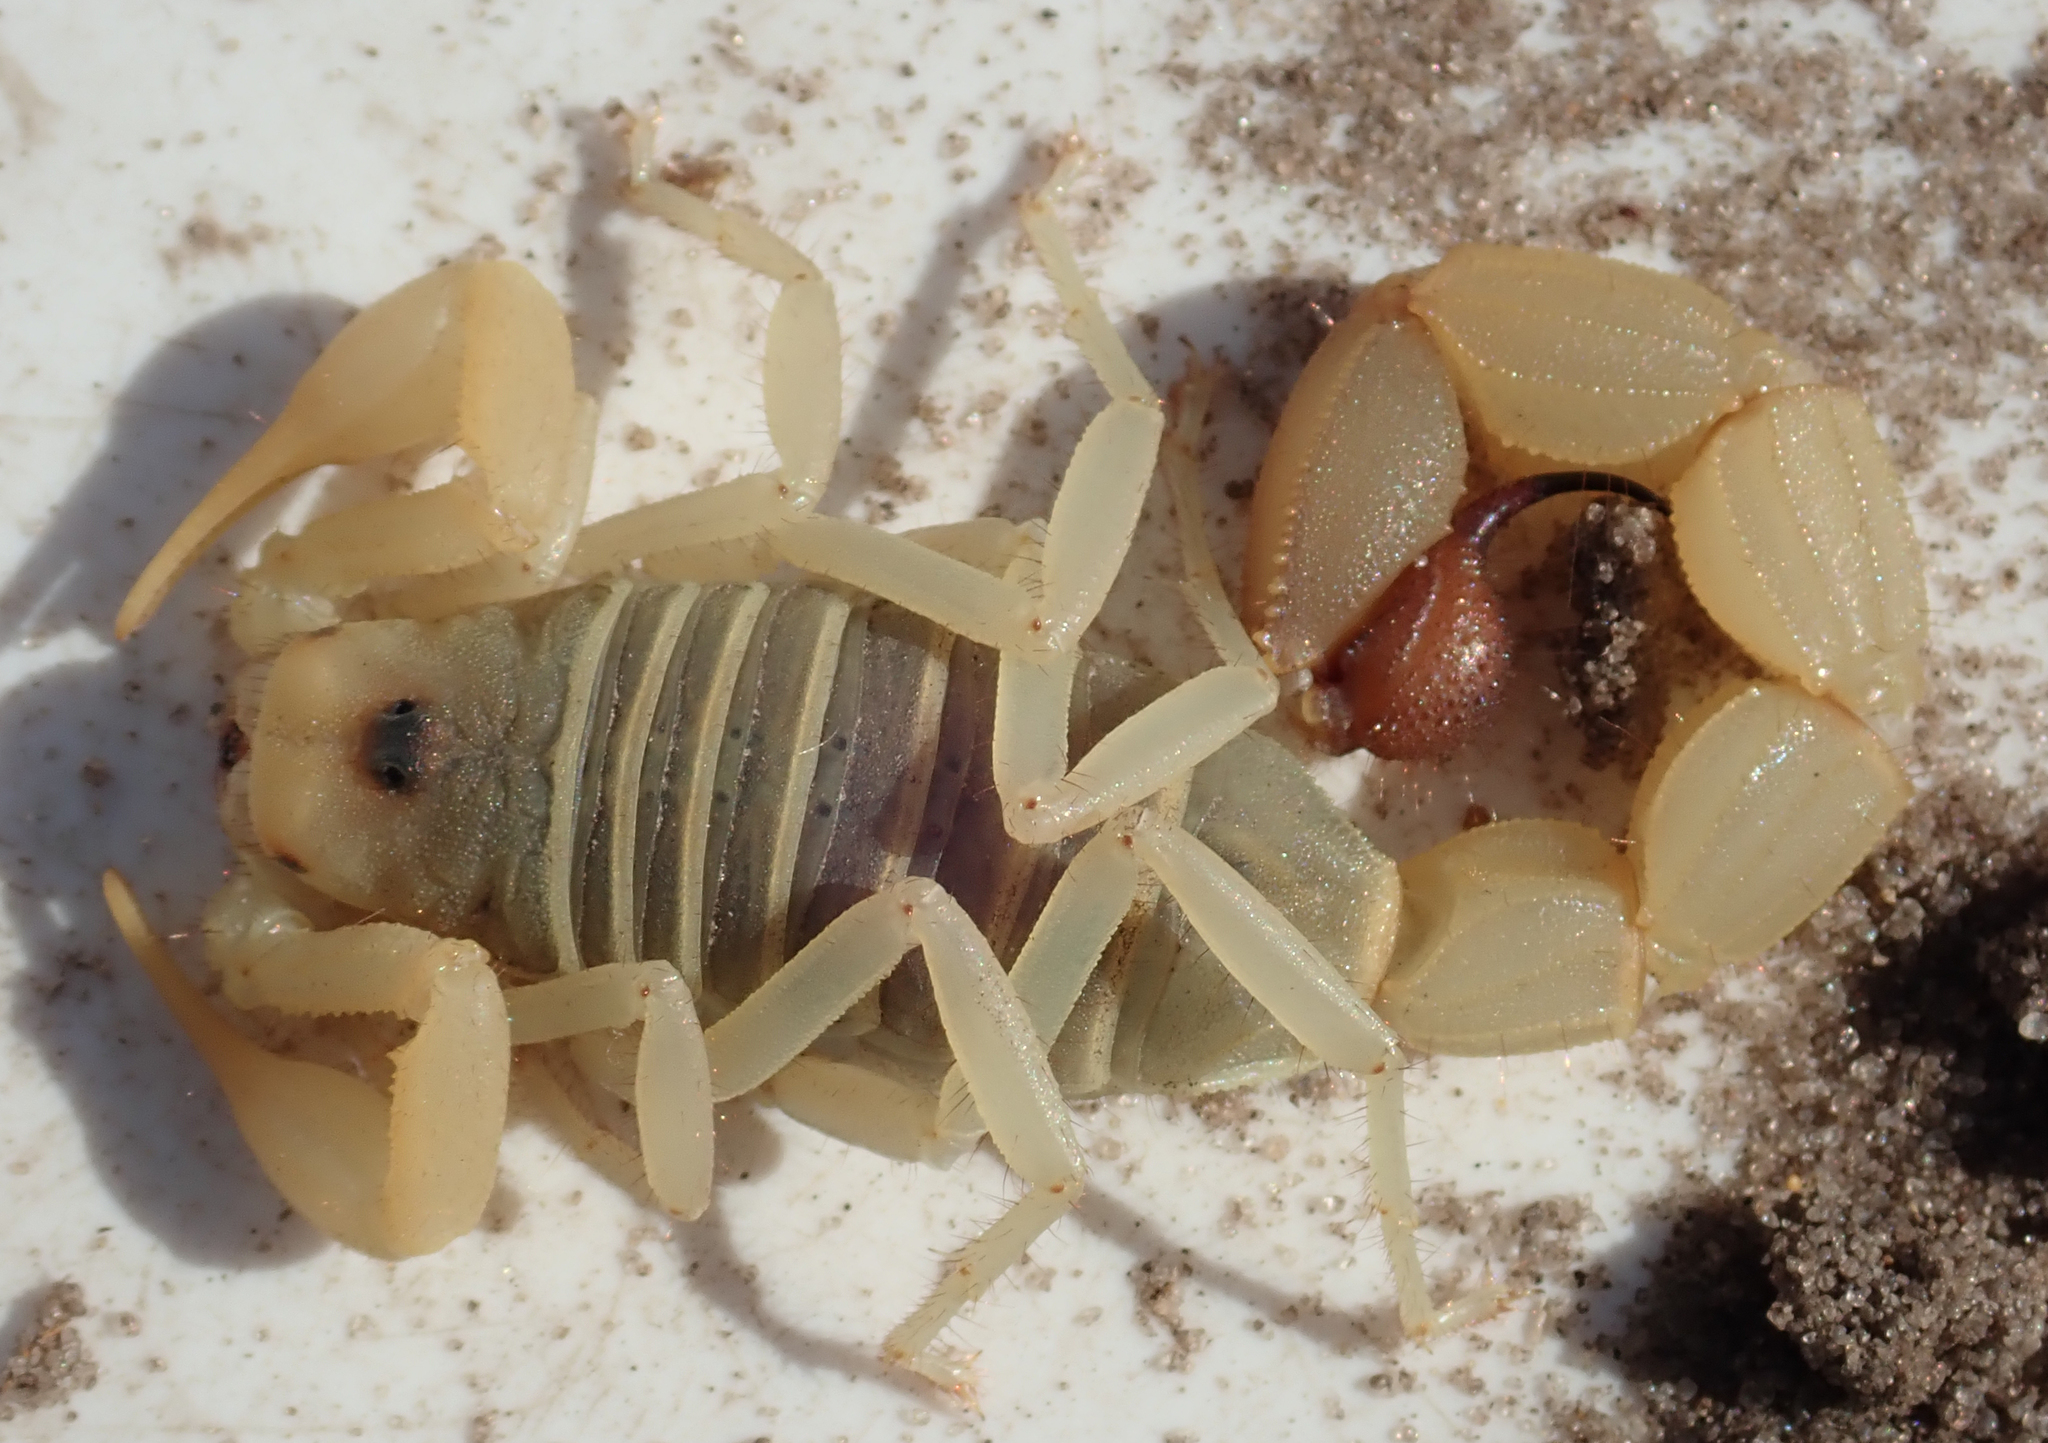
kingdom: Animalia
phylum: Arthropoda
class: Arachnida
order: Scorpiones
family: Buthidae
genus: Parabuthus
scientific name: Parabuthus raudus
